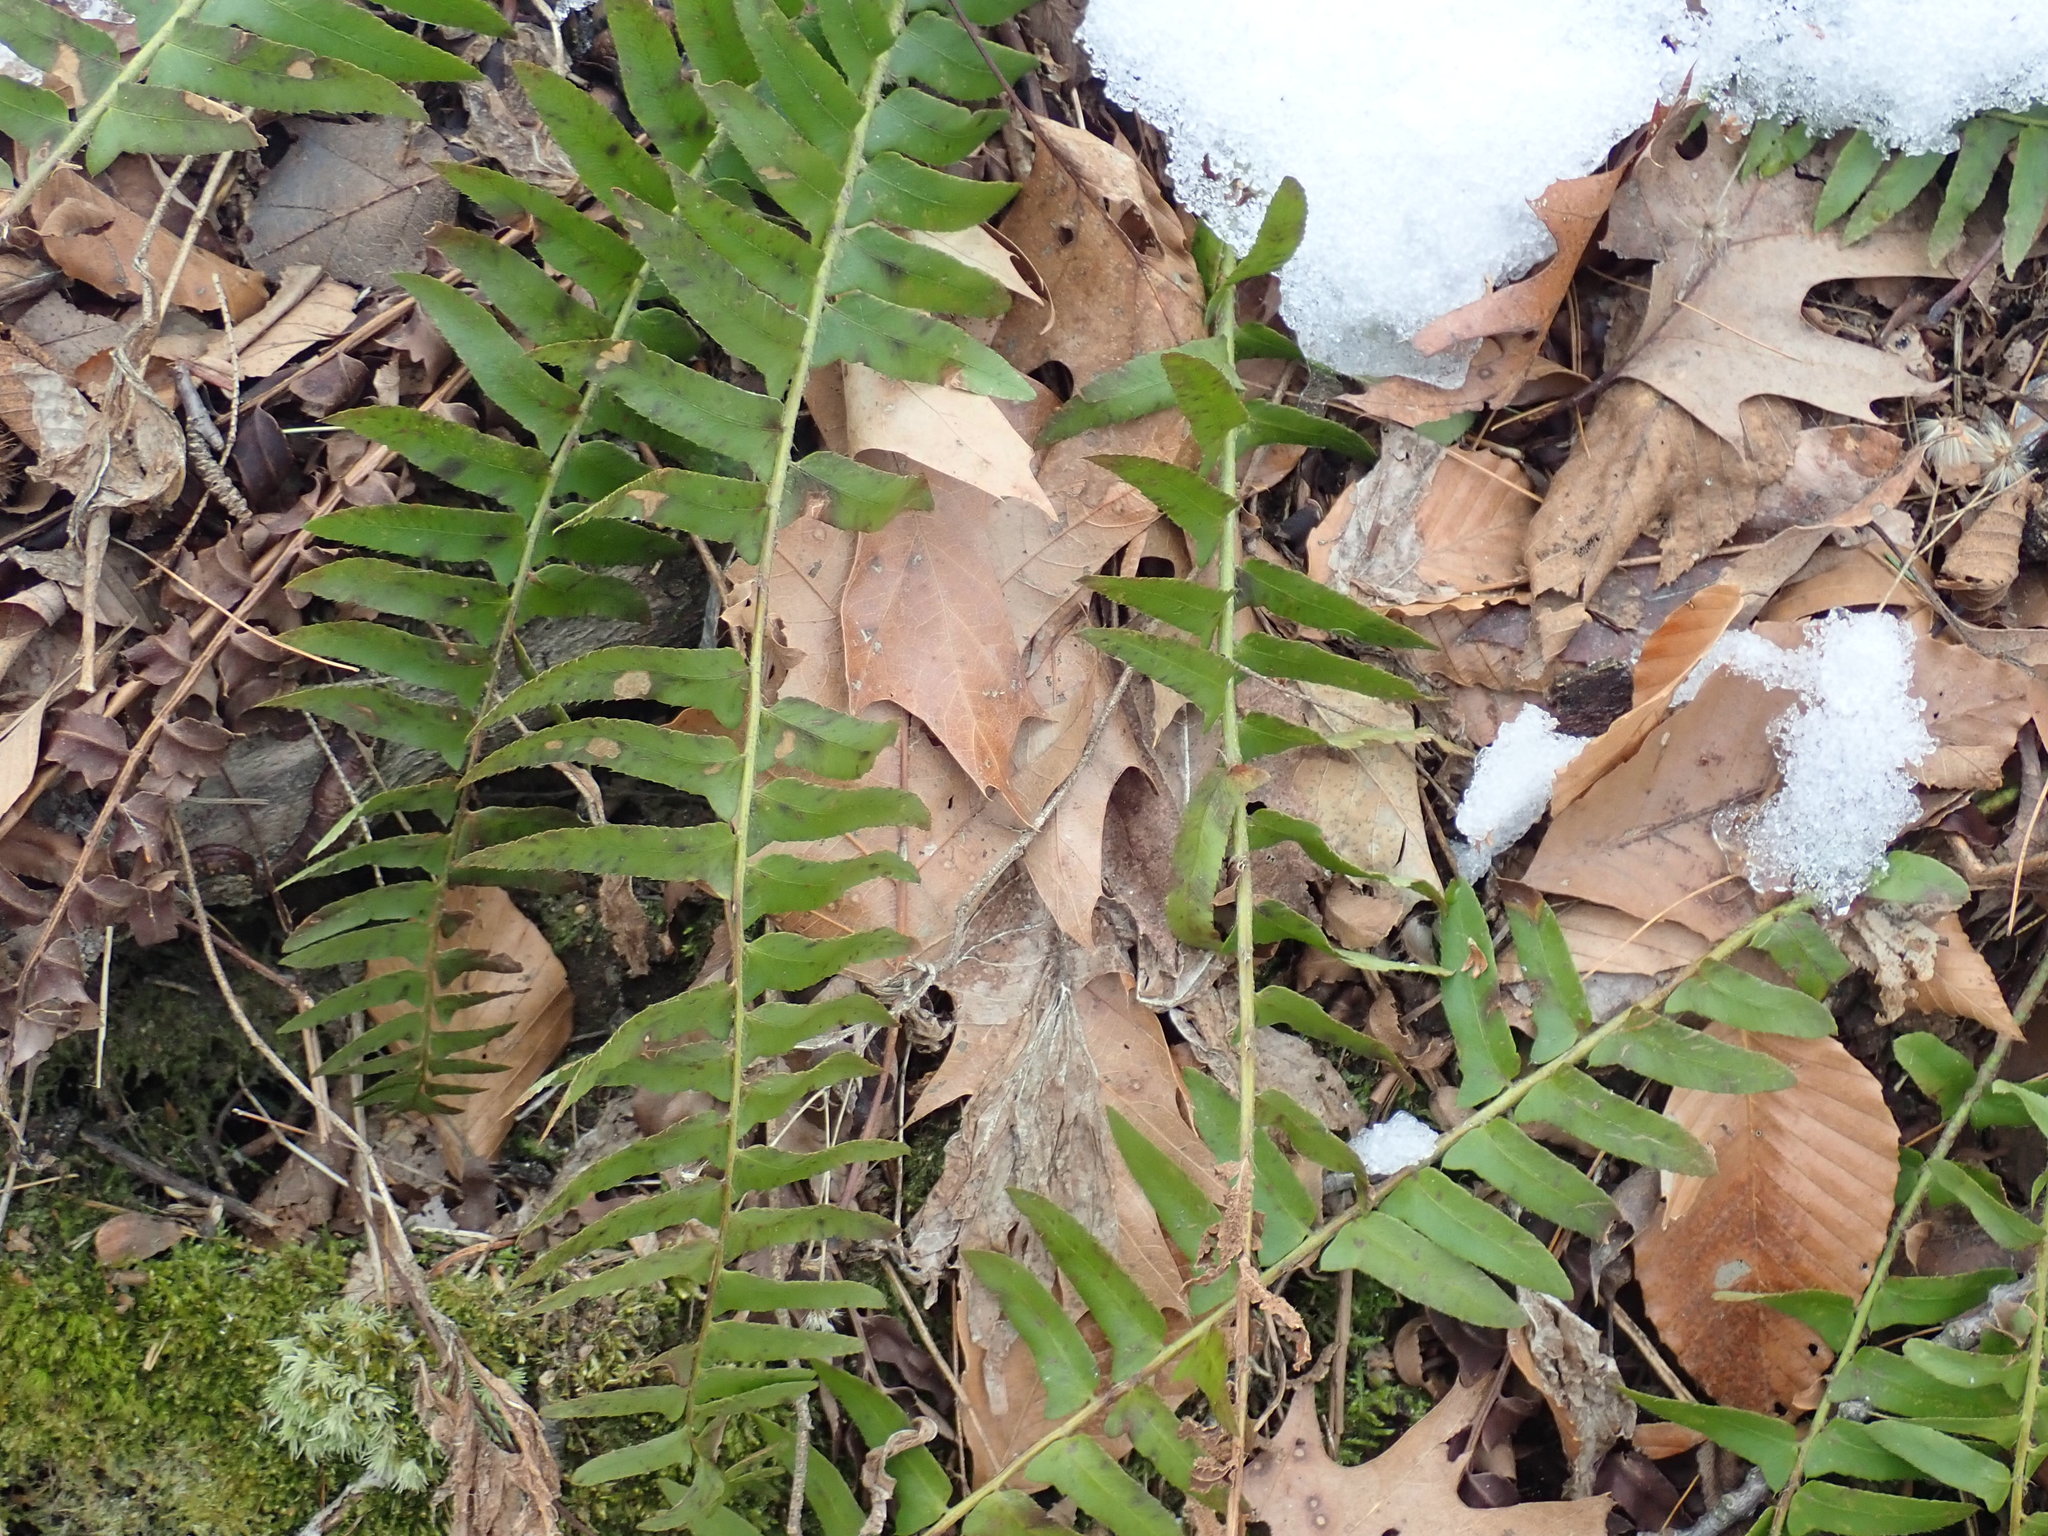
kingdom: Plantae
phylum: Tracheophyta
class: Polypodiopsida
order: Polypodiales
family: Dryopteridaceae
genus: Polystichum
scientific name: Polystichum acrostichoides
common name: Christmas fern
